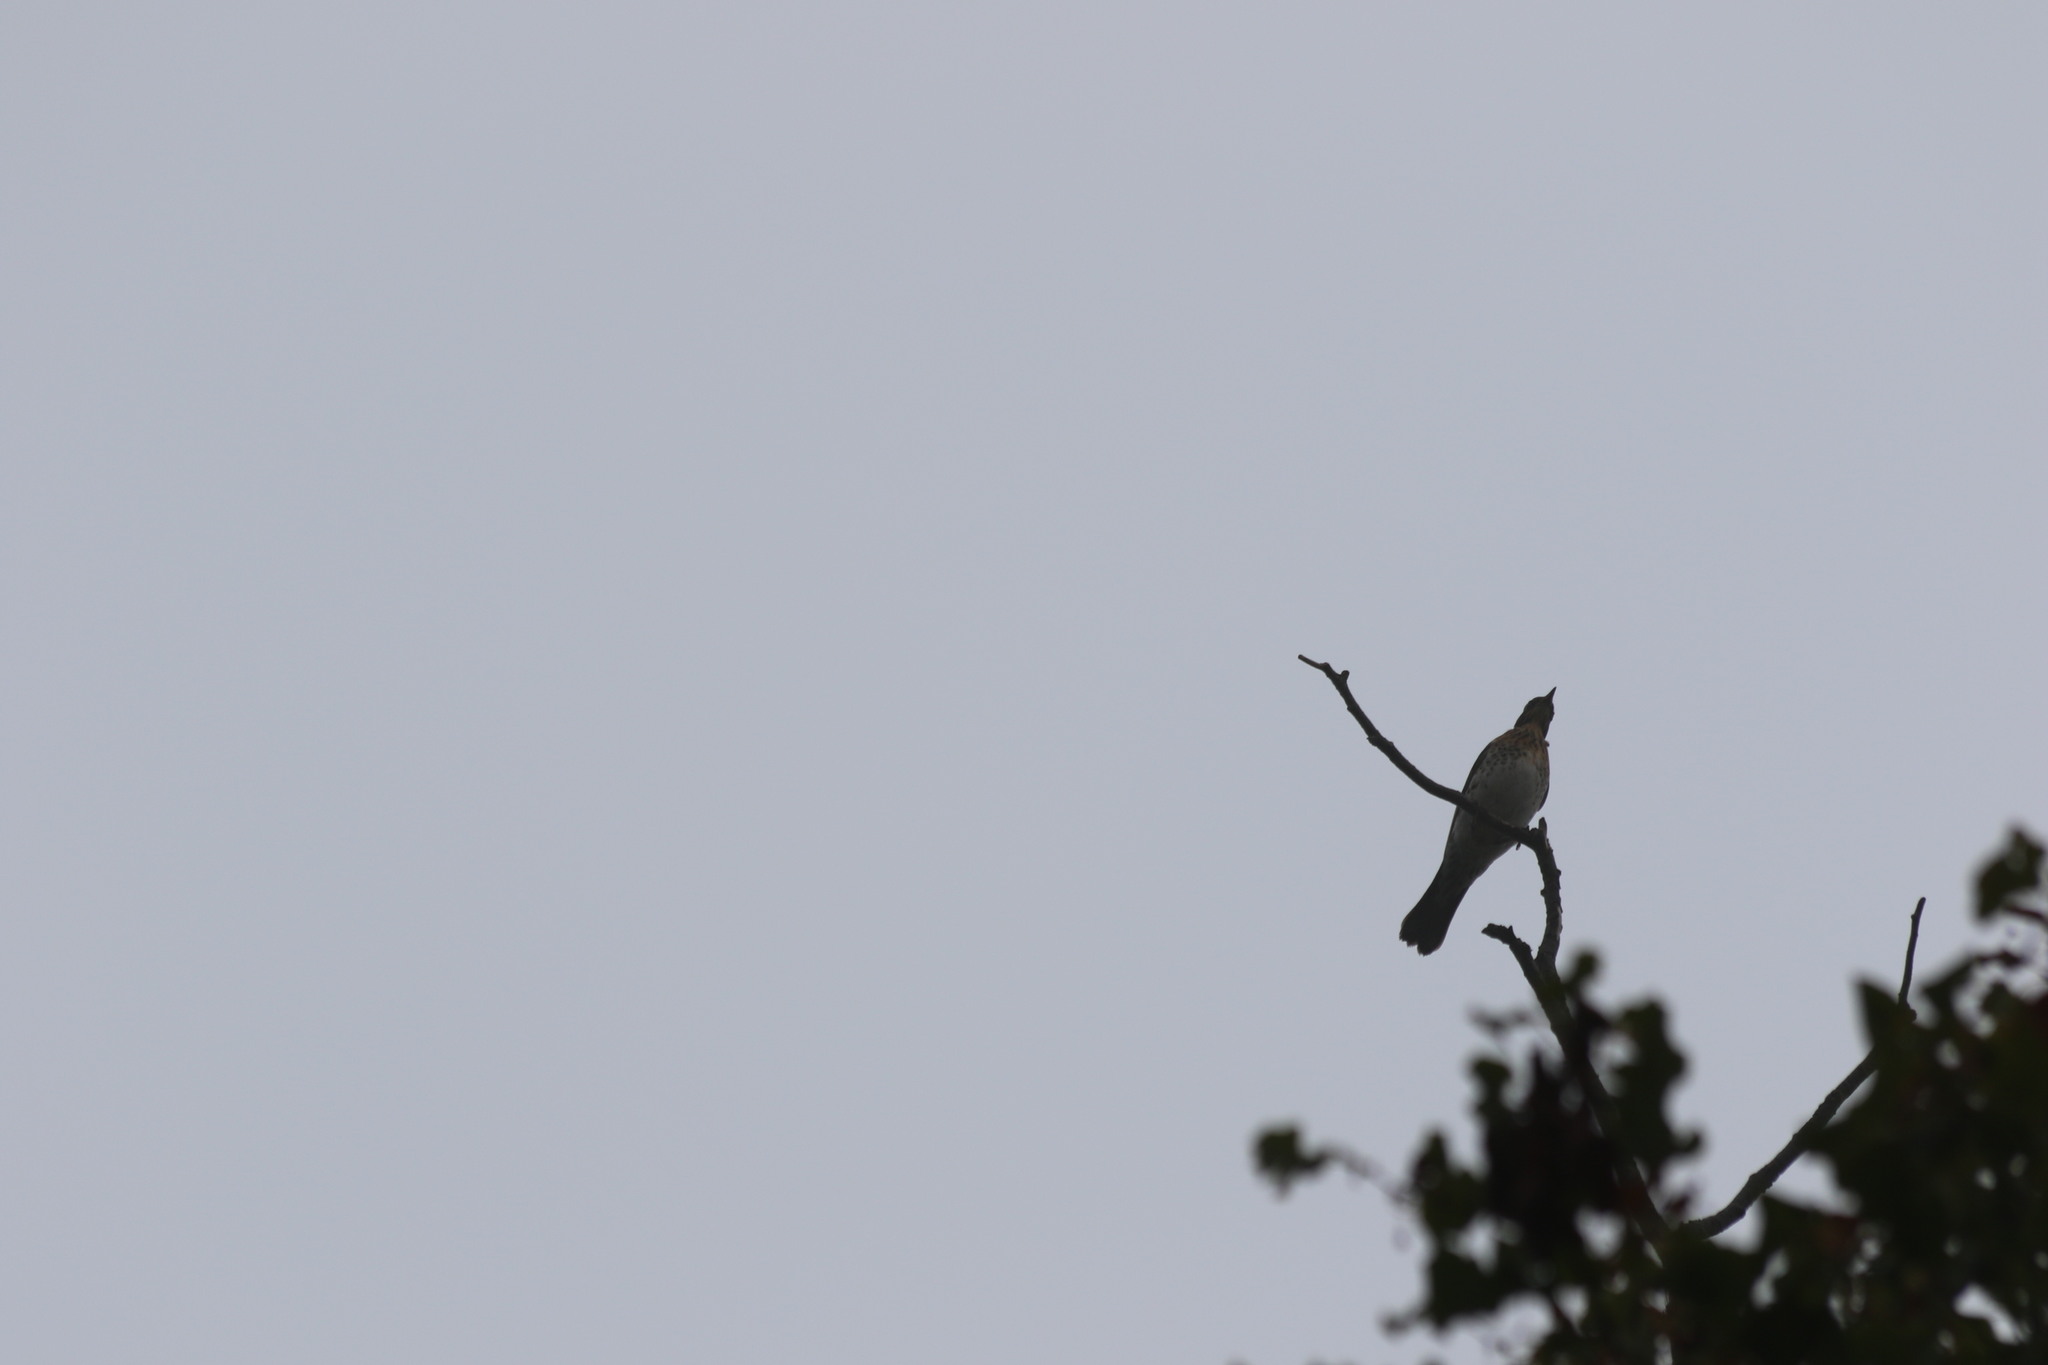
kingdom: Animalia
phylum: Chordata
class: Aves
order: Passeriformes
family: Turdidae
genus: Turdus
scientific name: Turdus pilaris
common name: Fieldfare
